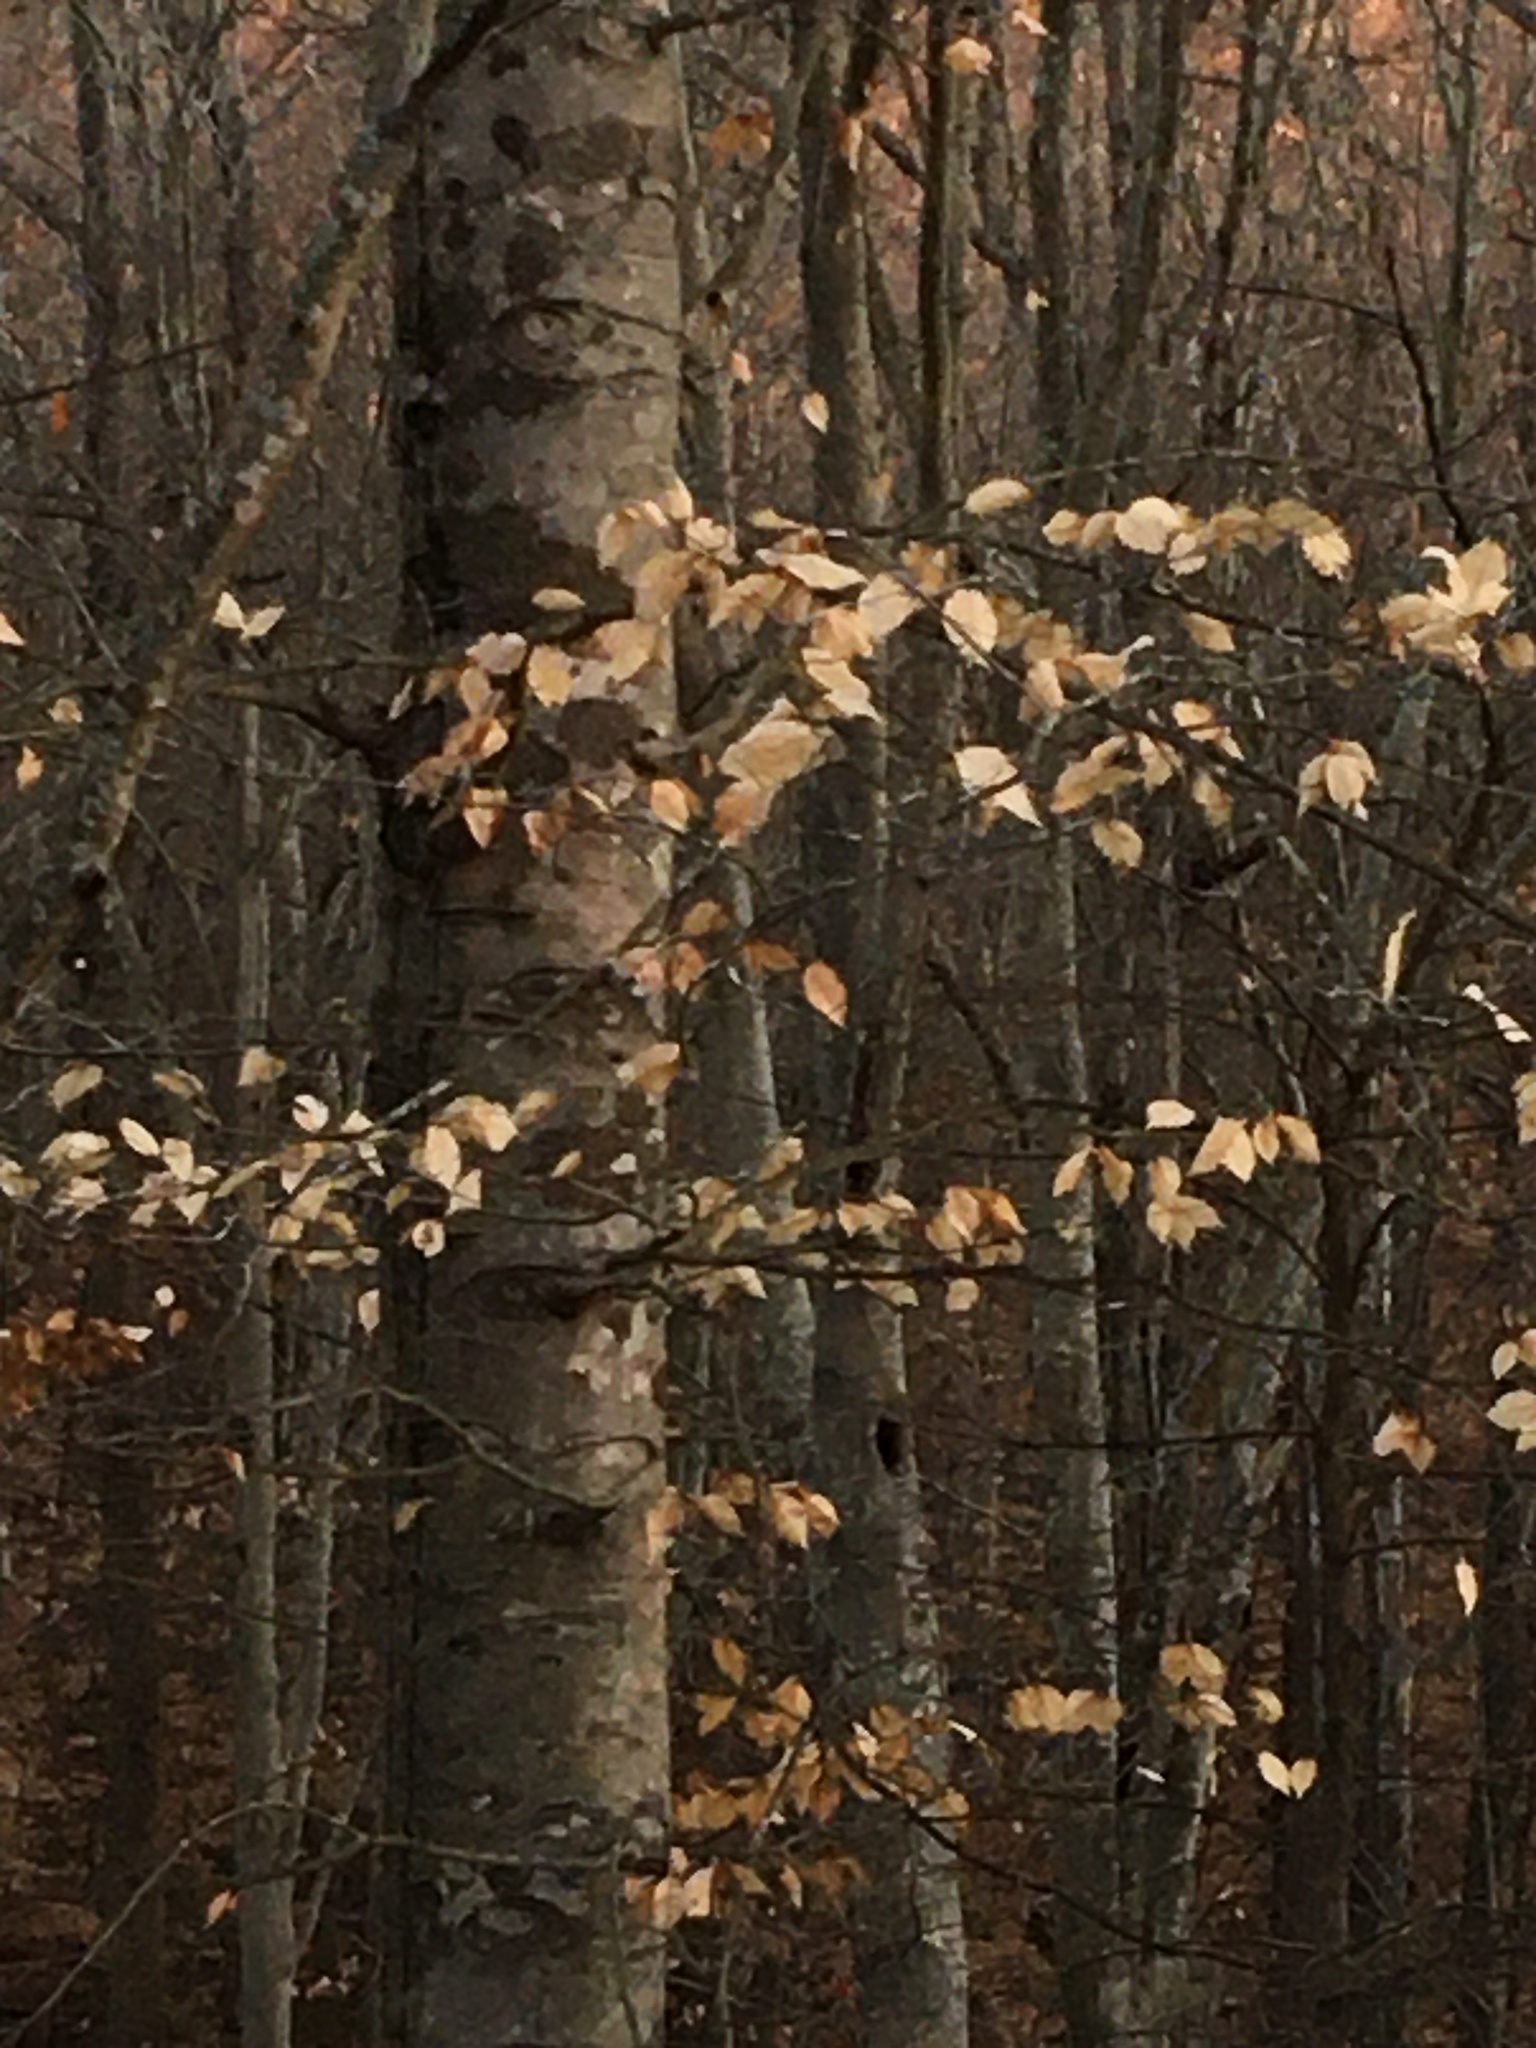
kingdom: Plantae
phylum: Tracheophyta
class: Magnoliopsida
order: Fagales
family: Fagaceae
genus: Fagus
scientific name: Fagus grandifolia
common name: American beech
